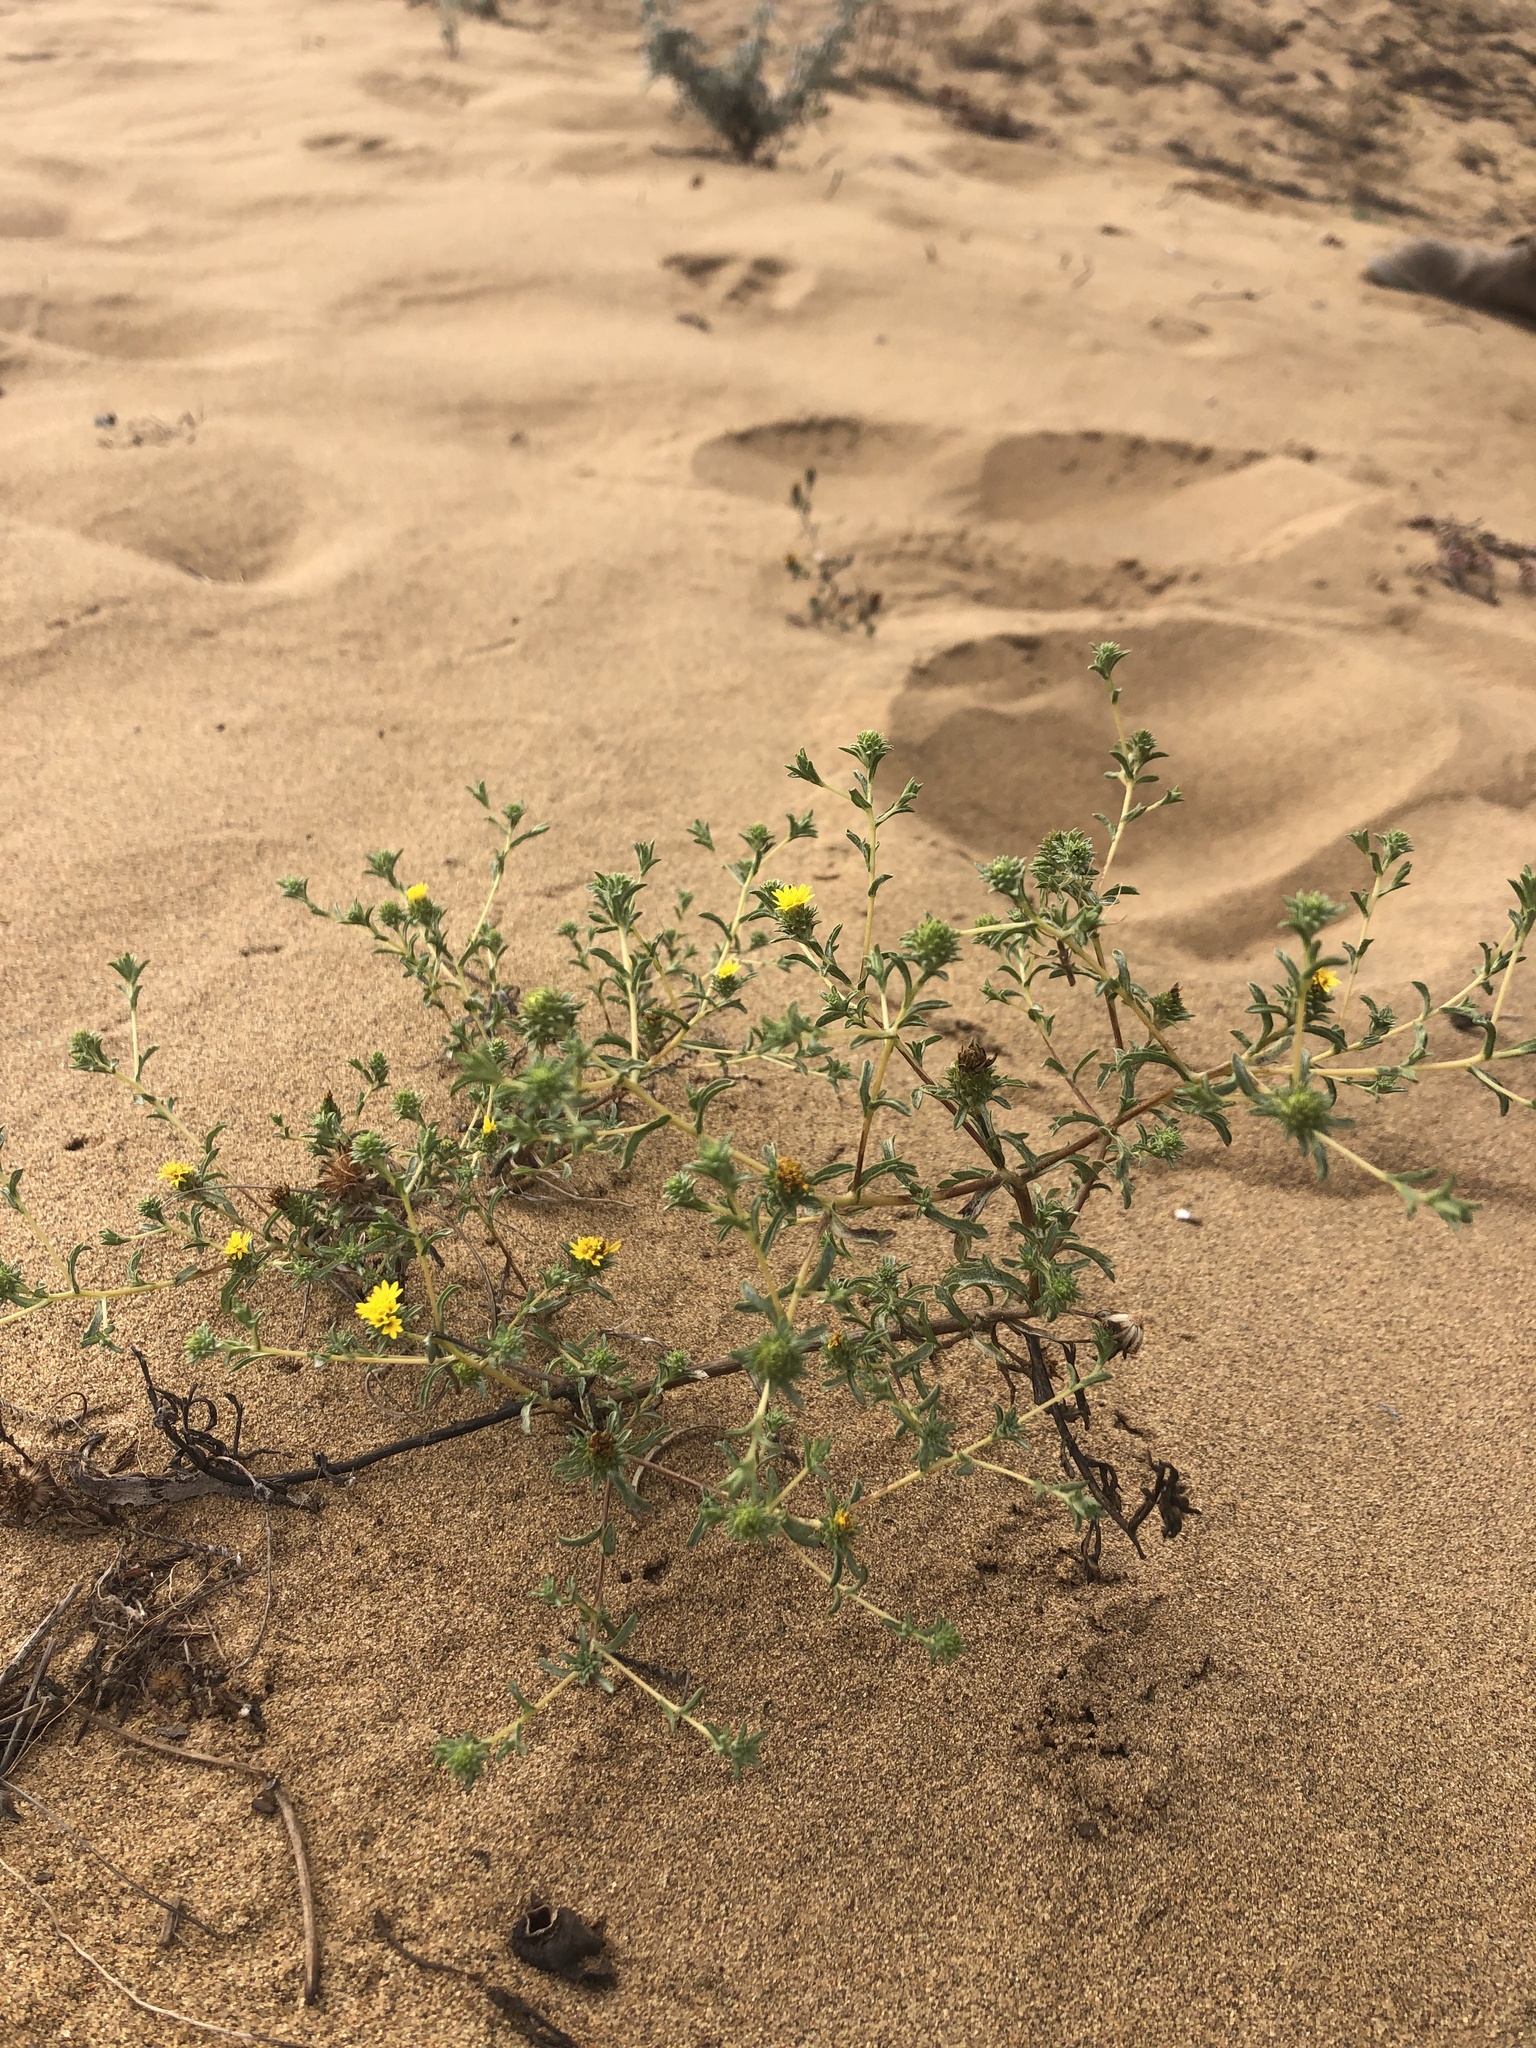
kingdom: Plantae
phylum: Tracheophyta
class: Magnoliopsida
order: Asterales
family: Asteraceae
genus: Lessingia
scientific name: Lessingia germanorum
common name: San francisco lessingia
